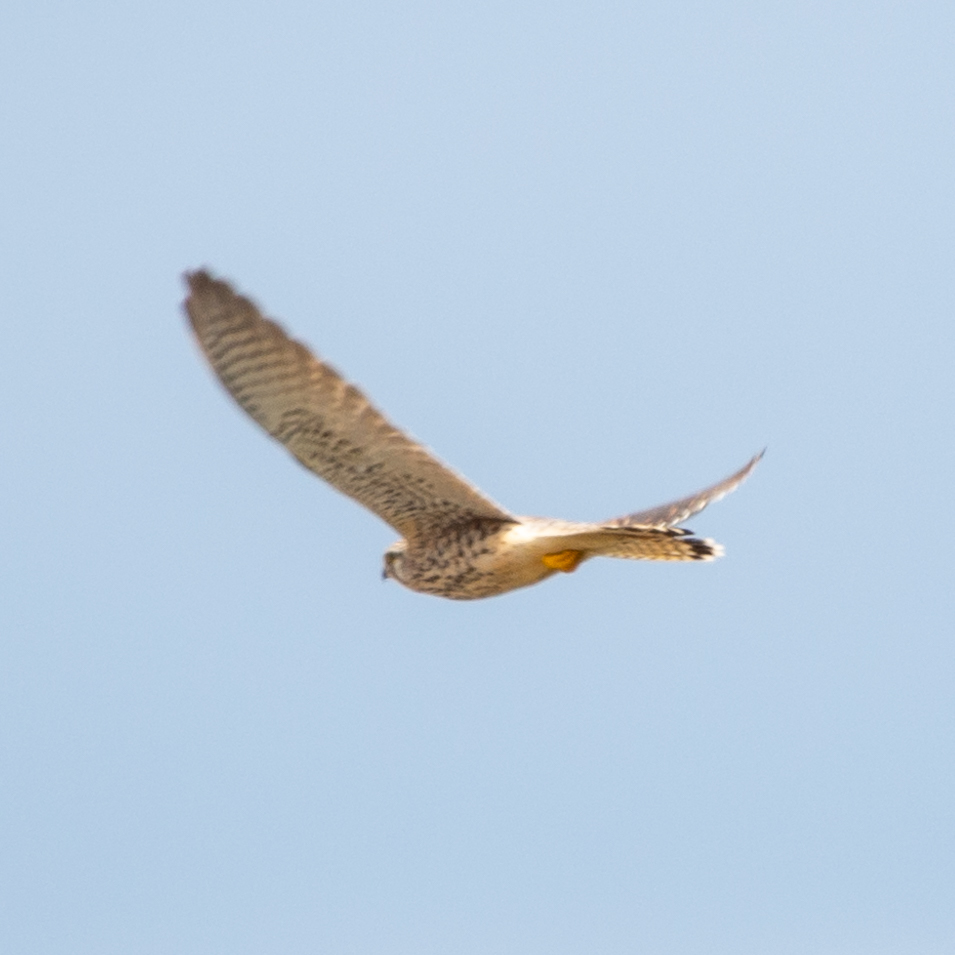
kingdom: Animalia
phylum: Chordata
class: Aves
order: Falconiformes
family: Falconidae
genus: Falco
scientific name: Falco tinnunculus
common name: Common kestrel
